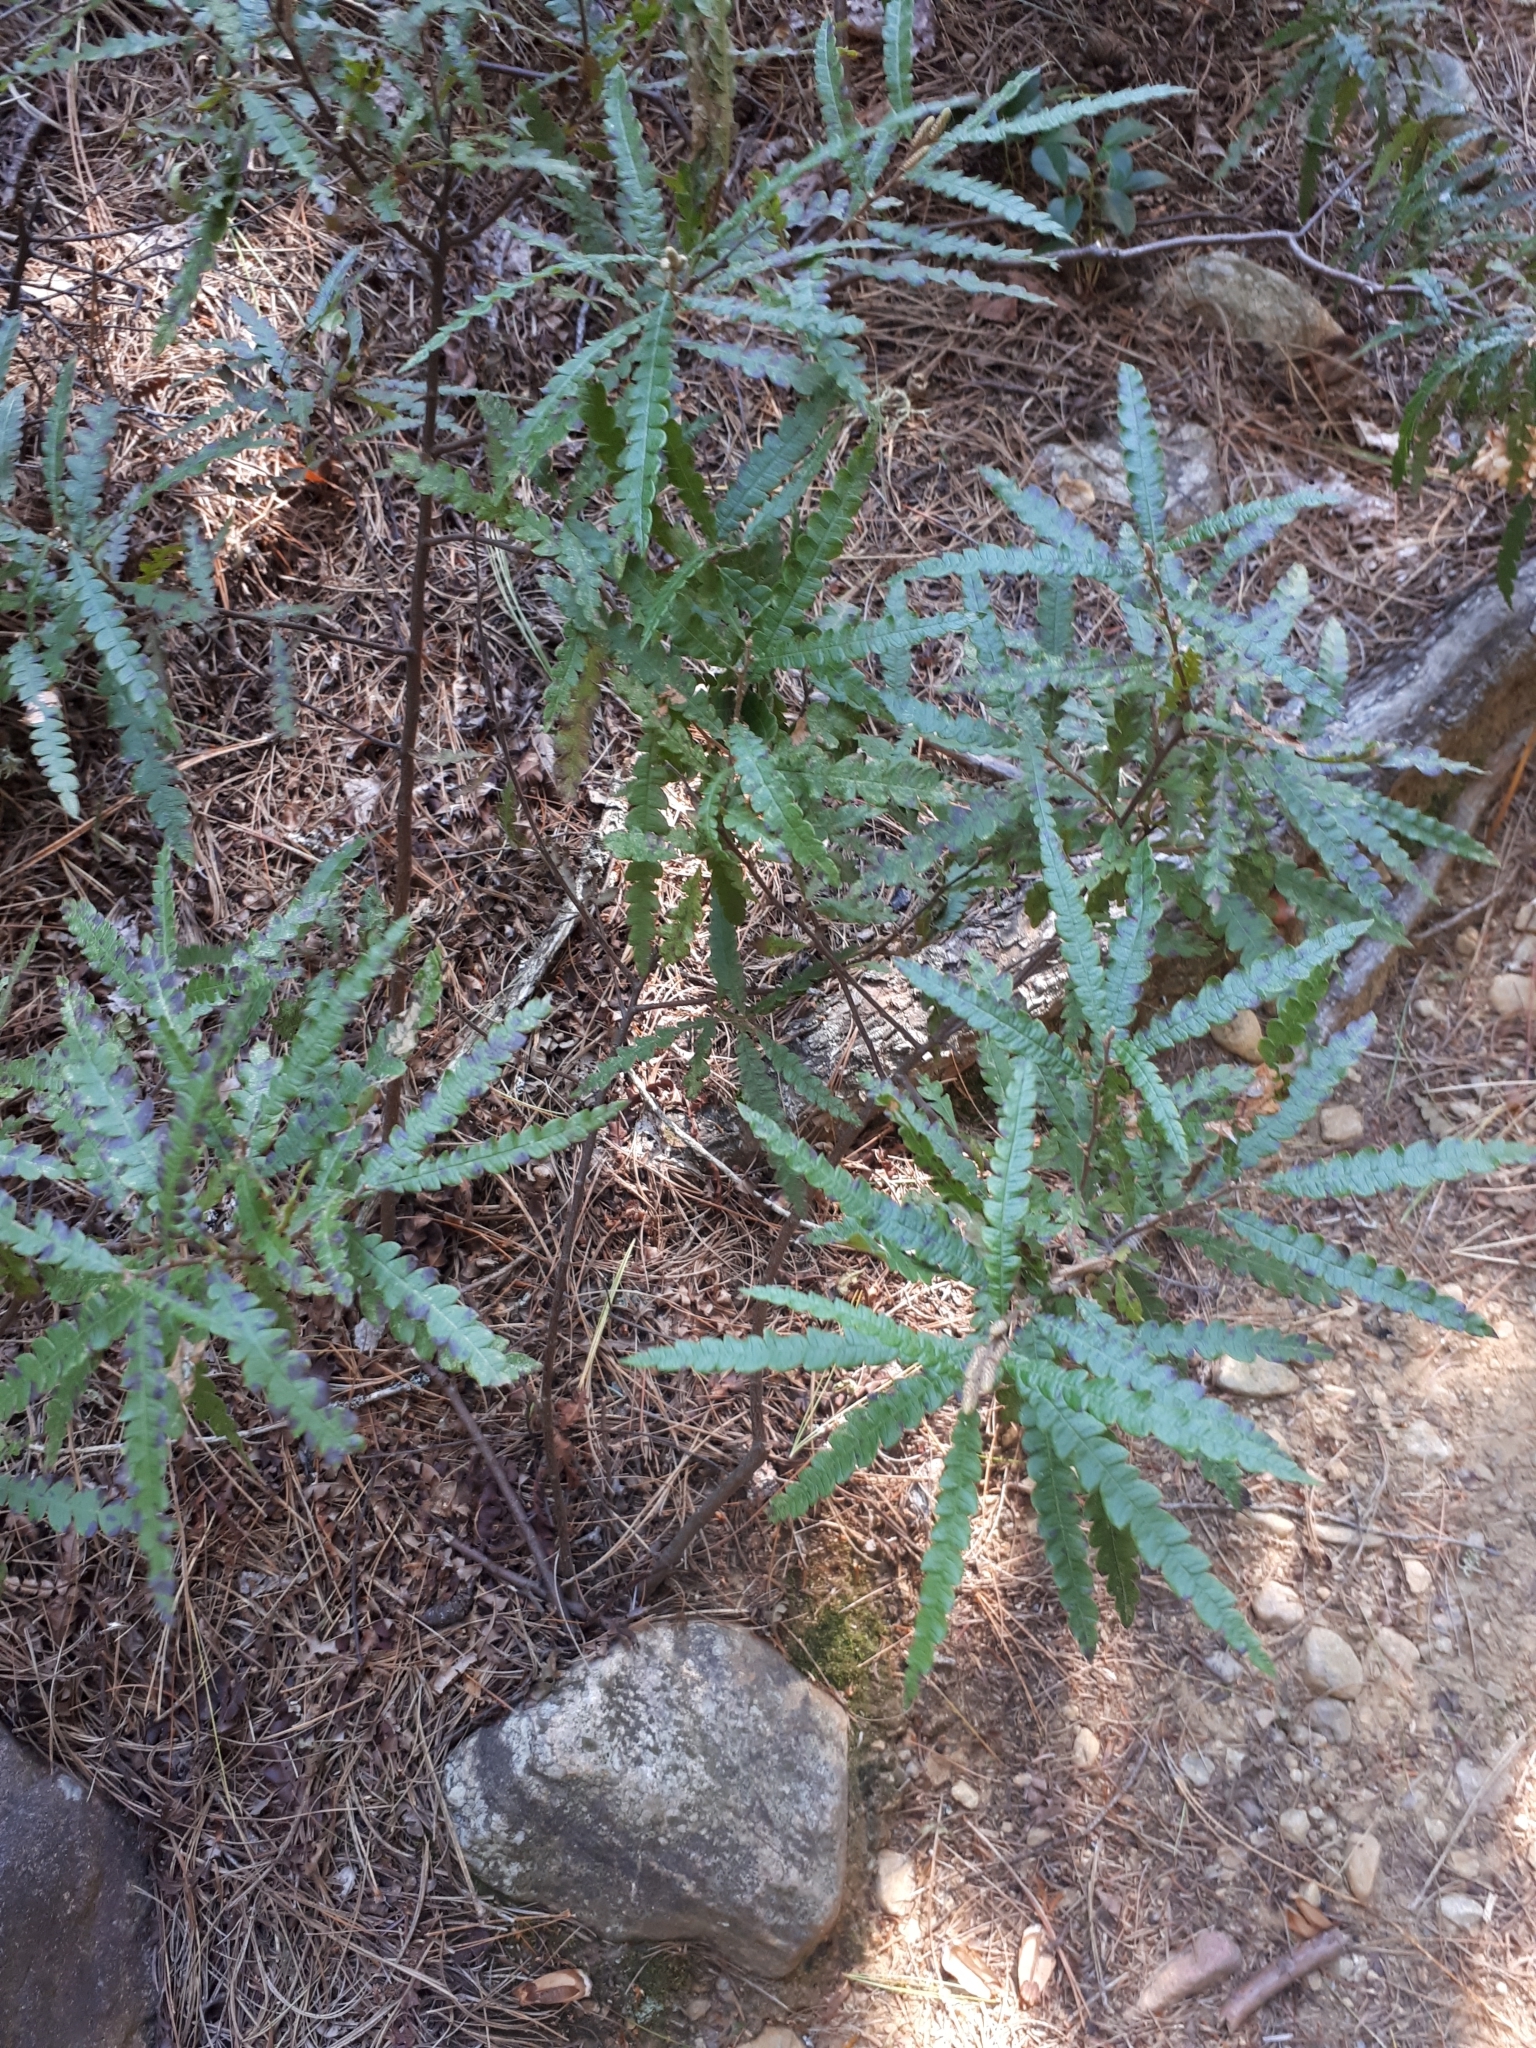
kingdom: Plantae
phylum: Tracheophyta
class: Magnoliopsida
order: Fagales
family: Myricaceae
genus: Comptonia
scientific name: Comptonia peregrina
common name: Sweet-fern
